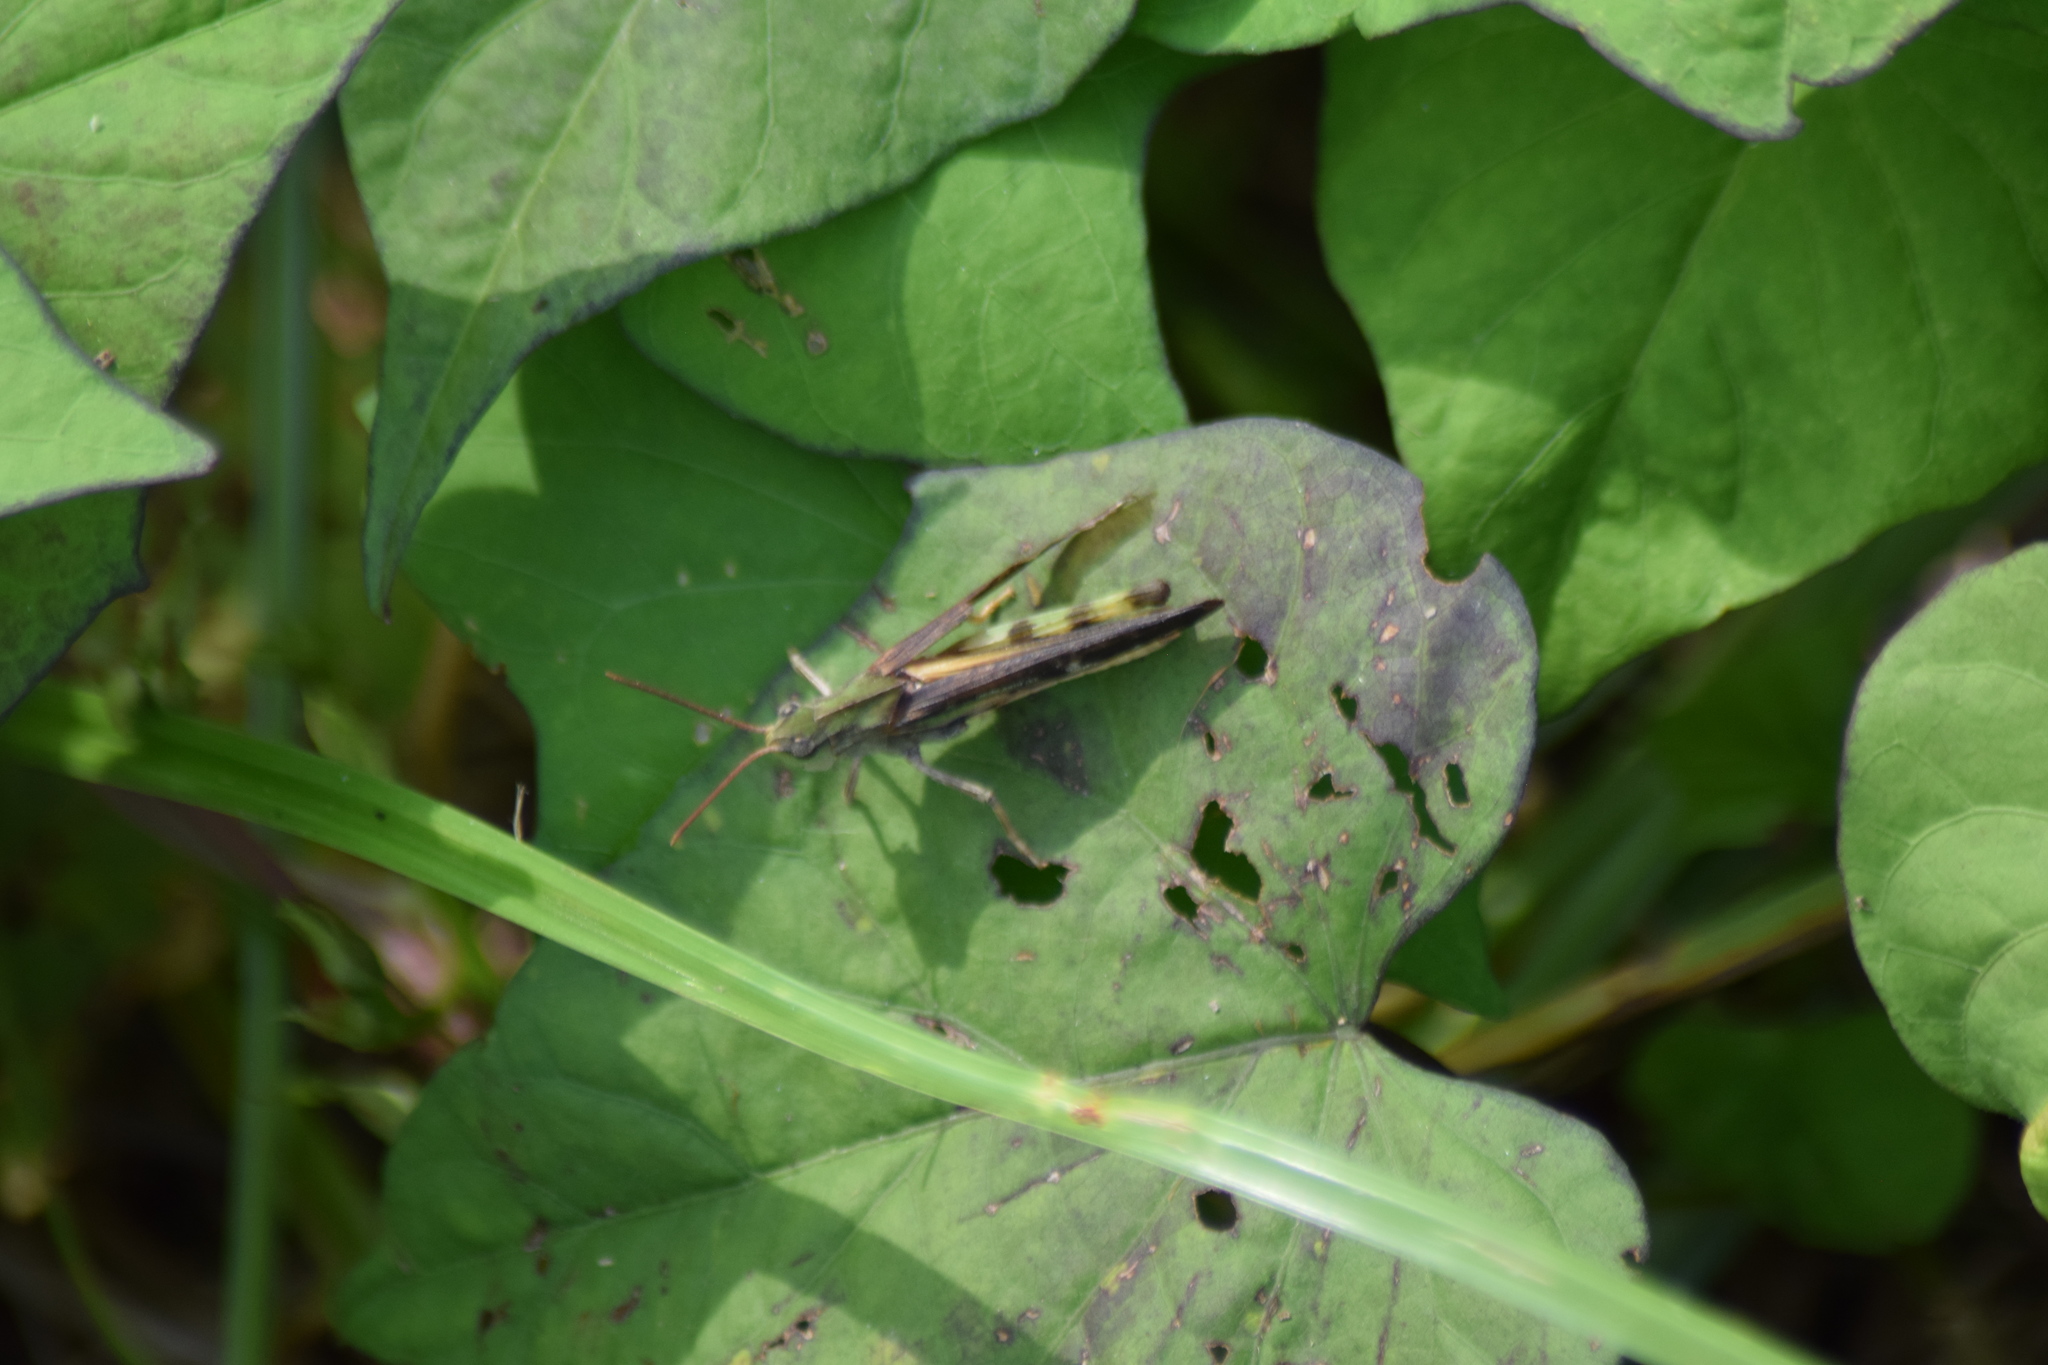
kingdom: Animalia
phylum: Arthropoda
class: Insecta
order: Orthoptera
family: Acrididae
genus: Chortophaga
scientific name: Chortophaga viridifasciata
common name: Green-striped grasshopper
